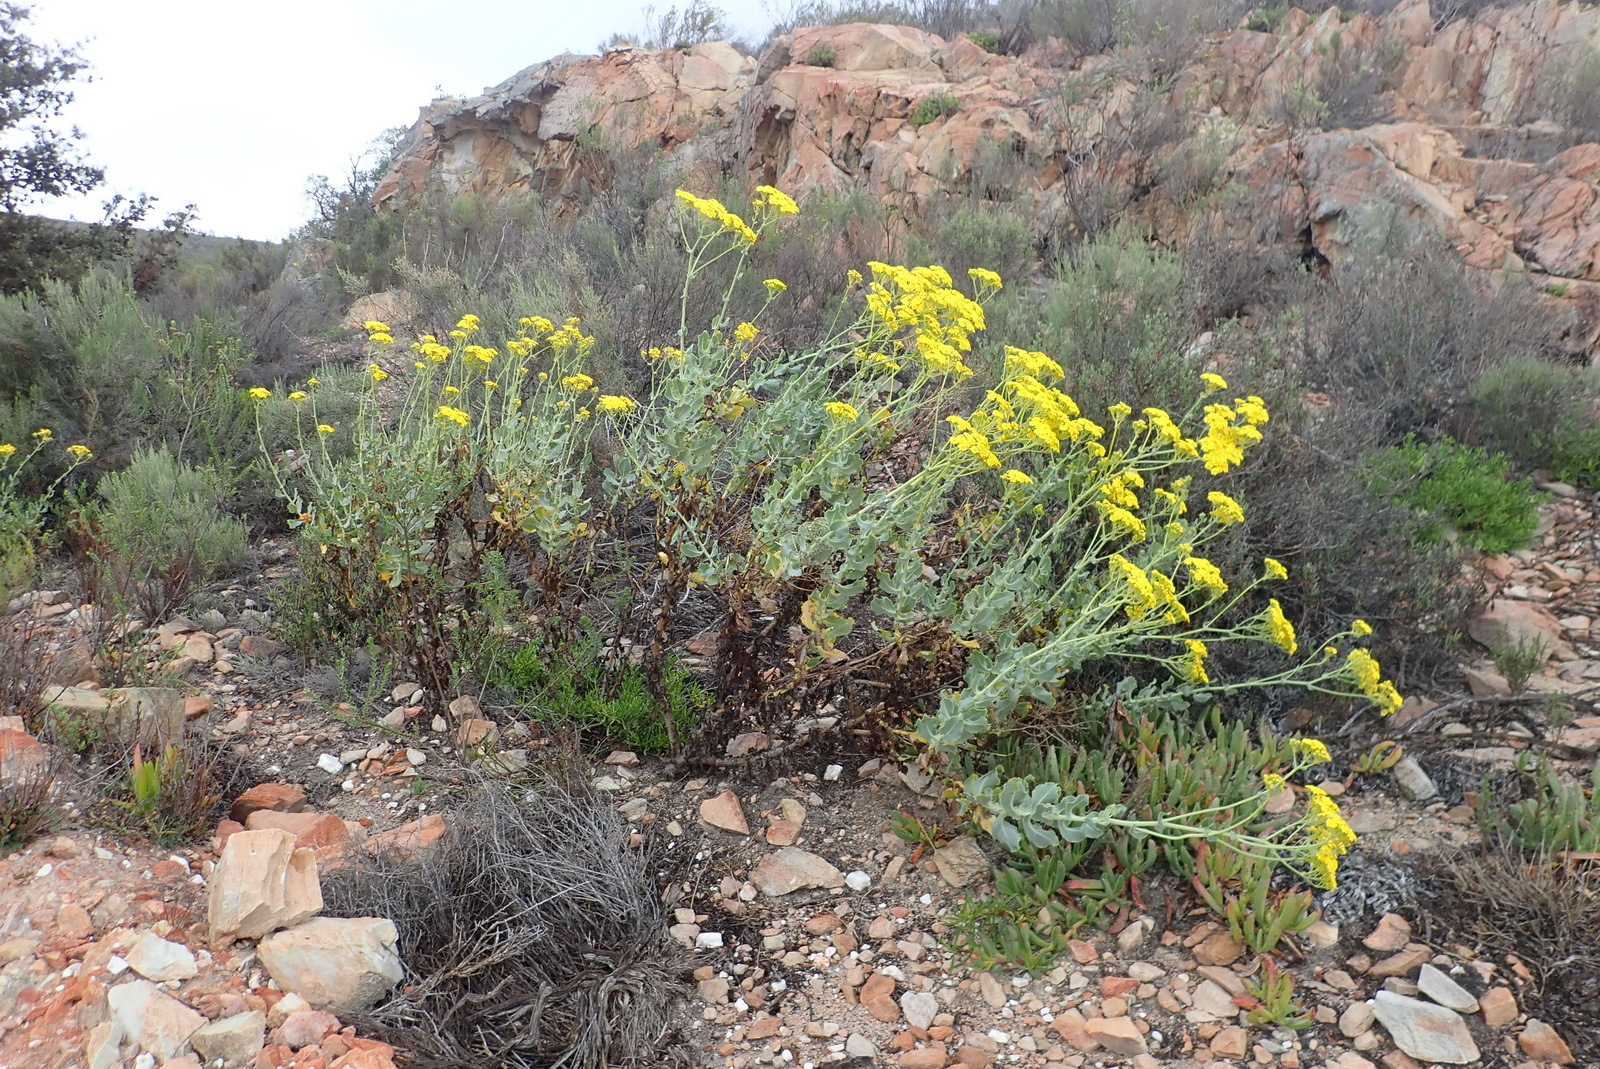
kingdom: Plantae
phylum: Tracheophyta
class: Magnoliopsida
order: Asterales
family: Asteraceae
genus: Othonna
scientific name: Othonna parviflora
